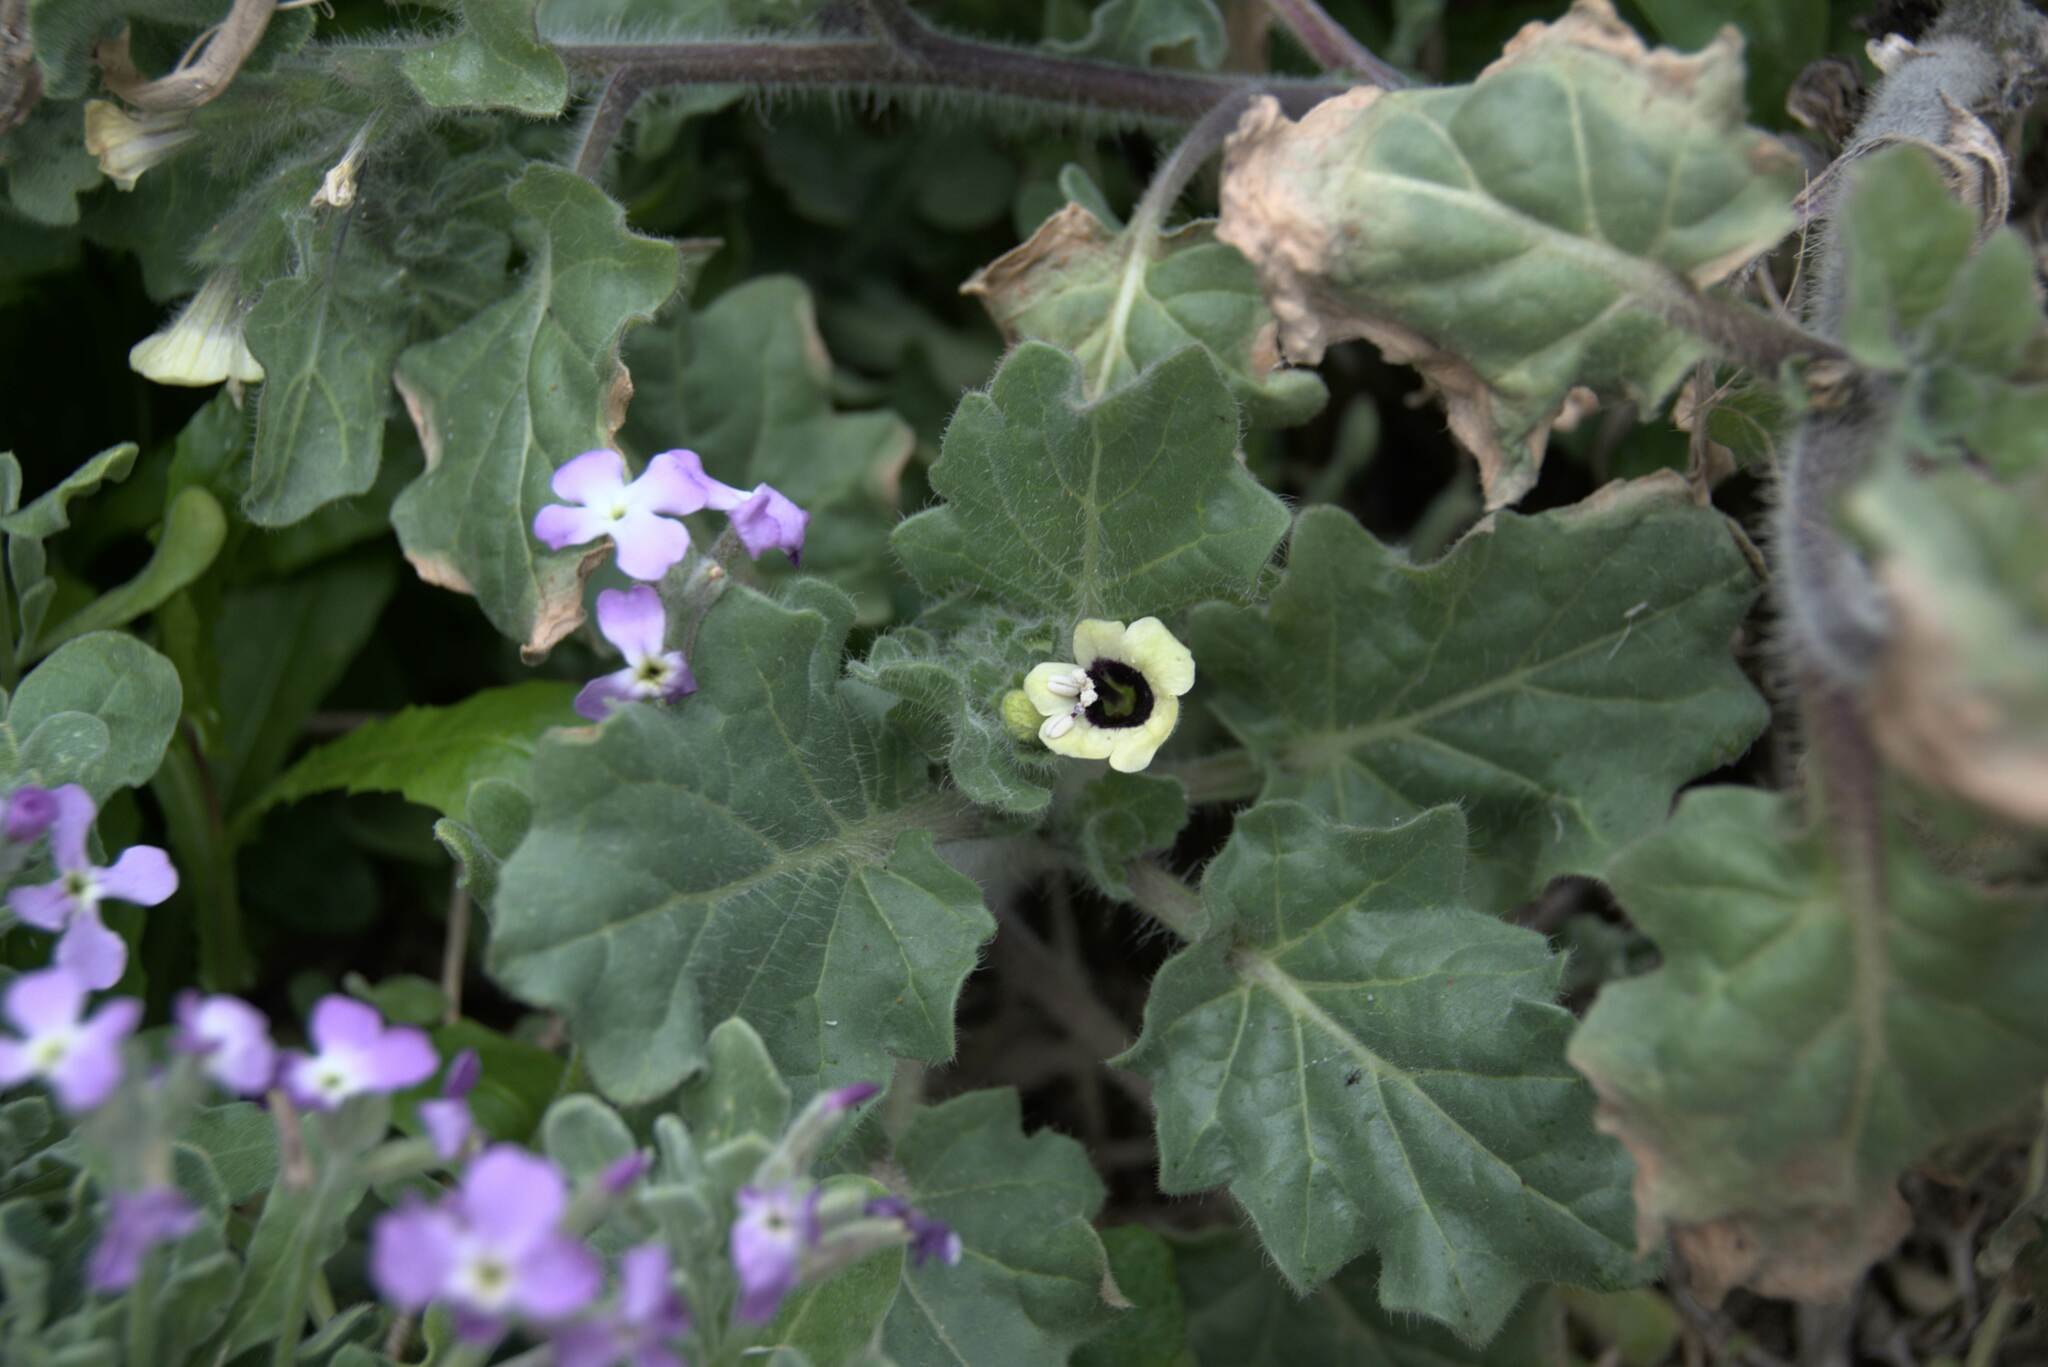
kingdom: Plantae
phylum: Tracheophyta
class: Magnoliopsida
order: Solanales
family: Solanaceae
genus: Hyoscyamus
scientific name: Hyoscyamus albus
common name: White henbane
